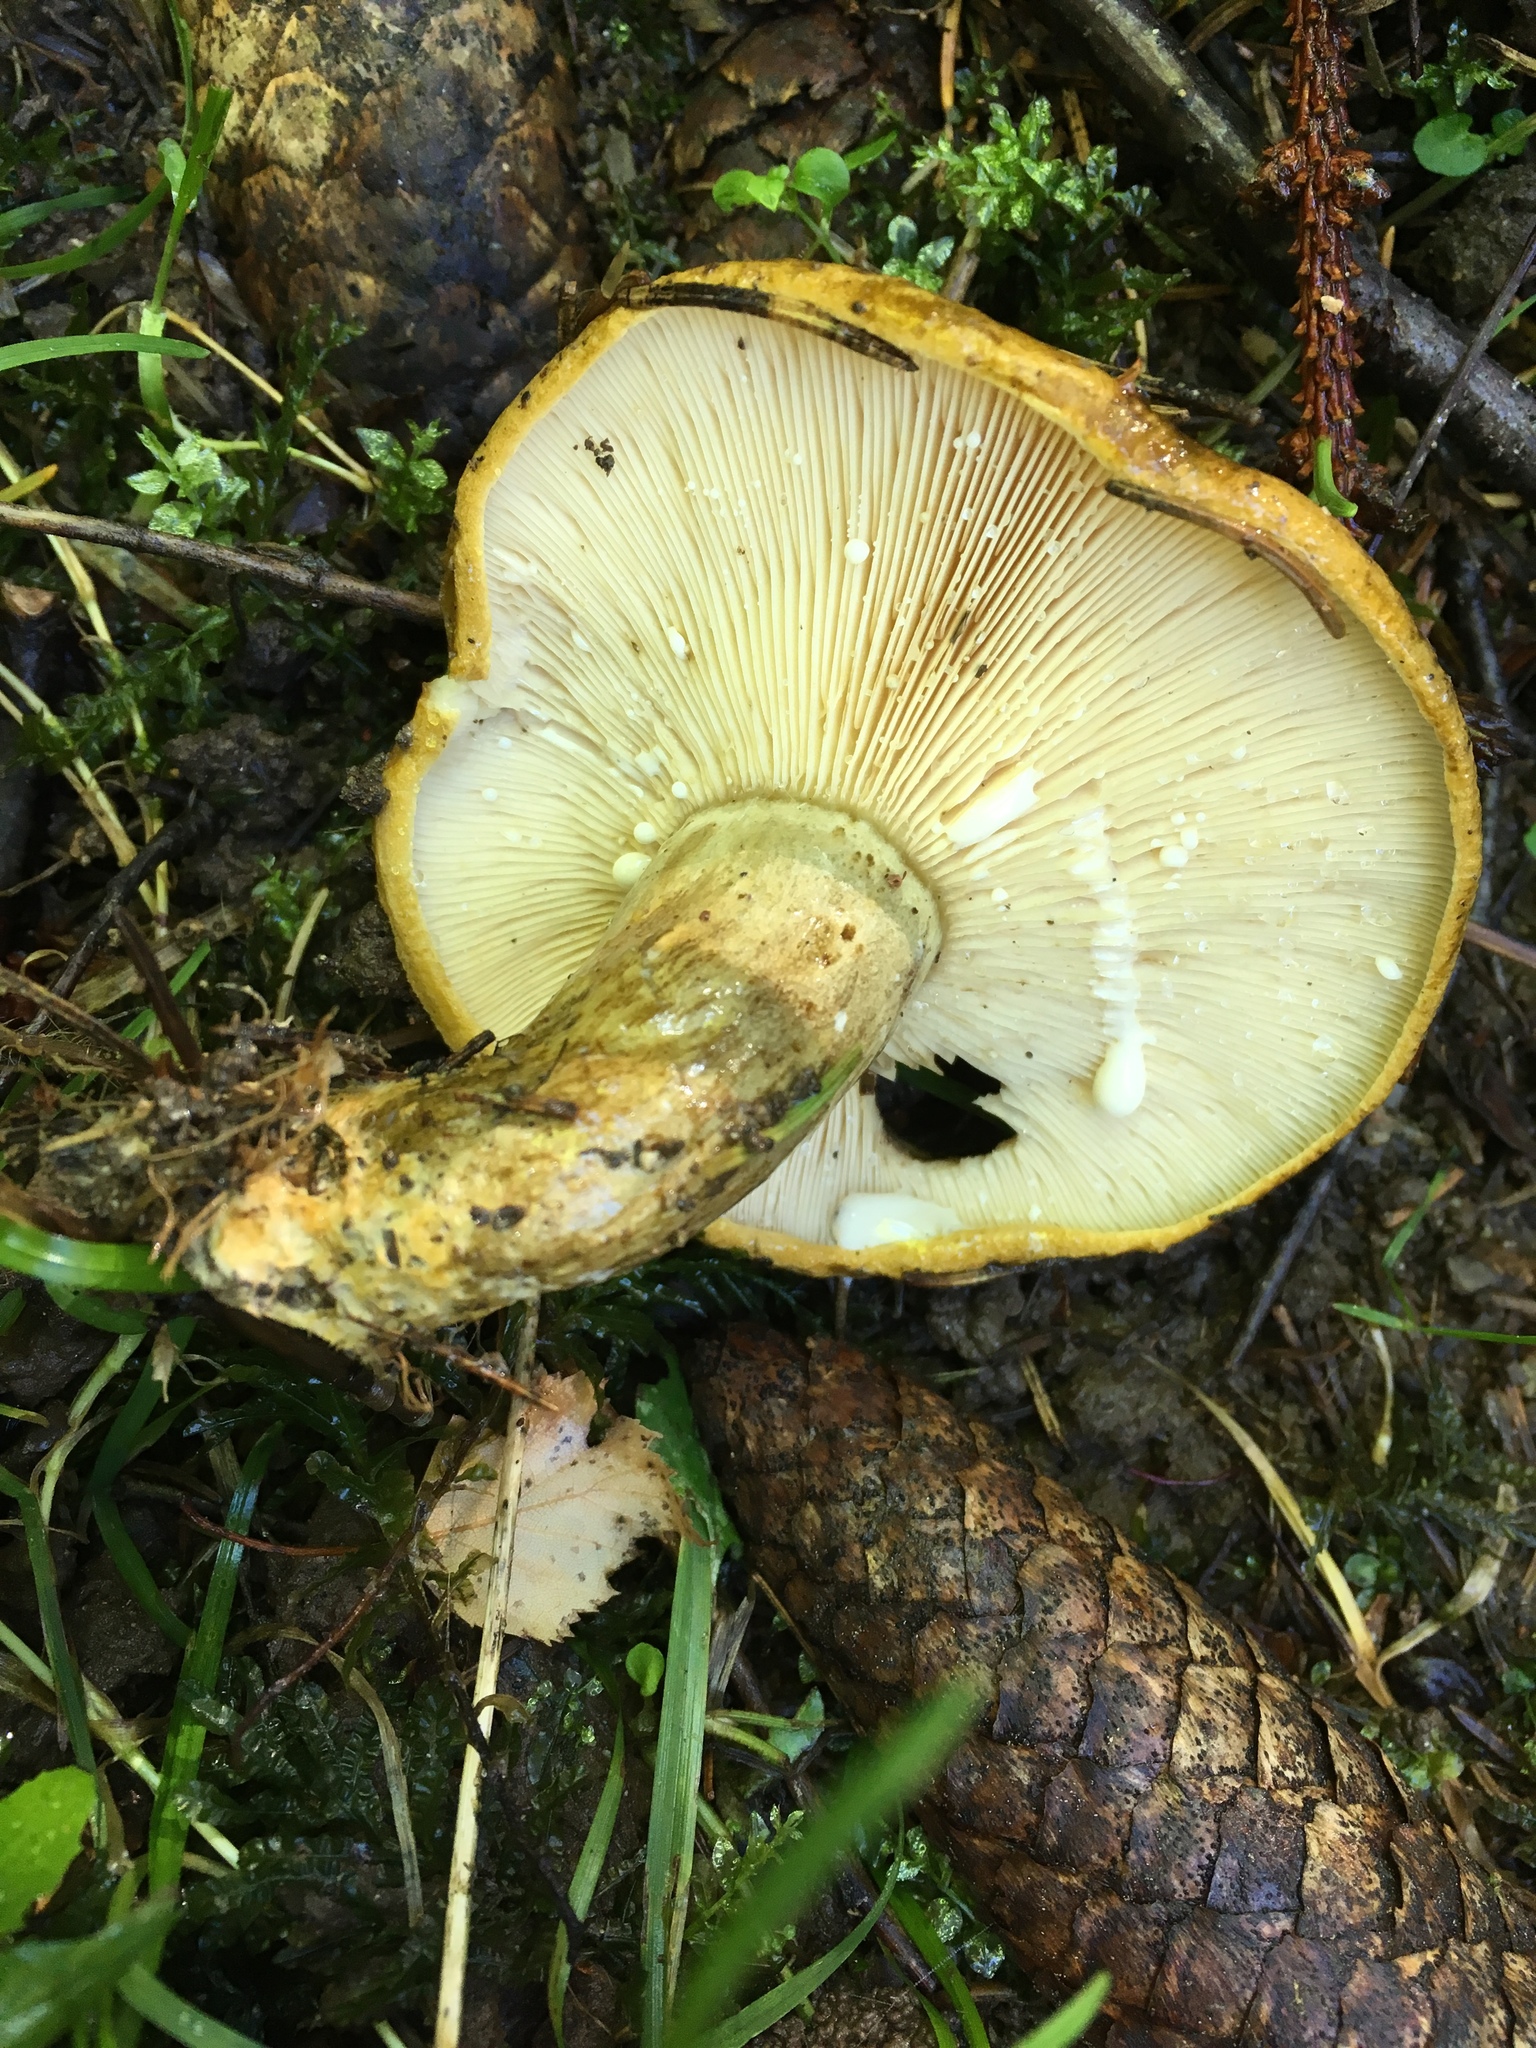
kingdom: Fungi
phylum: Basidiomycota
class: Agaricomycetes
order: Russulales
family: Russulaceae
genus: Lactarius
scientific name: Lactarius turpis
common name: Ugly milk-cap
